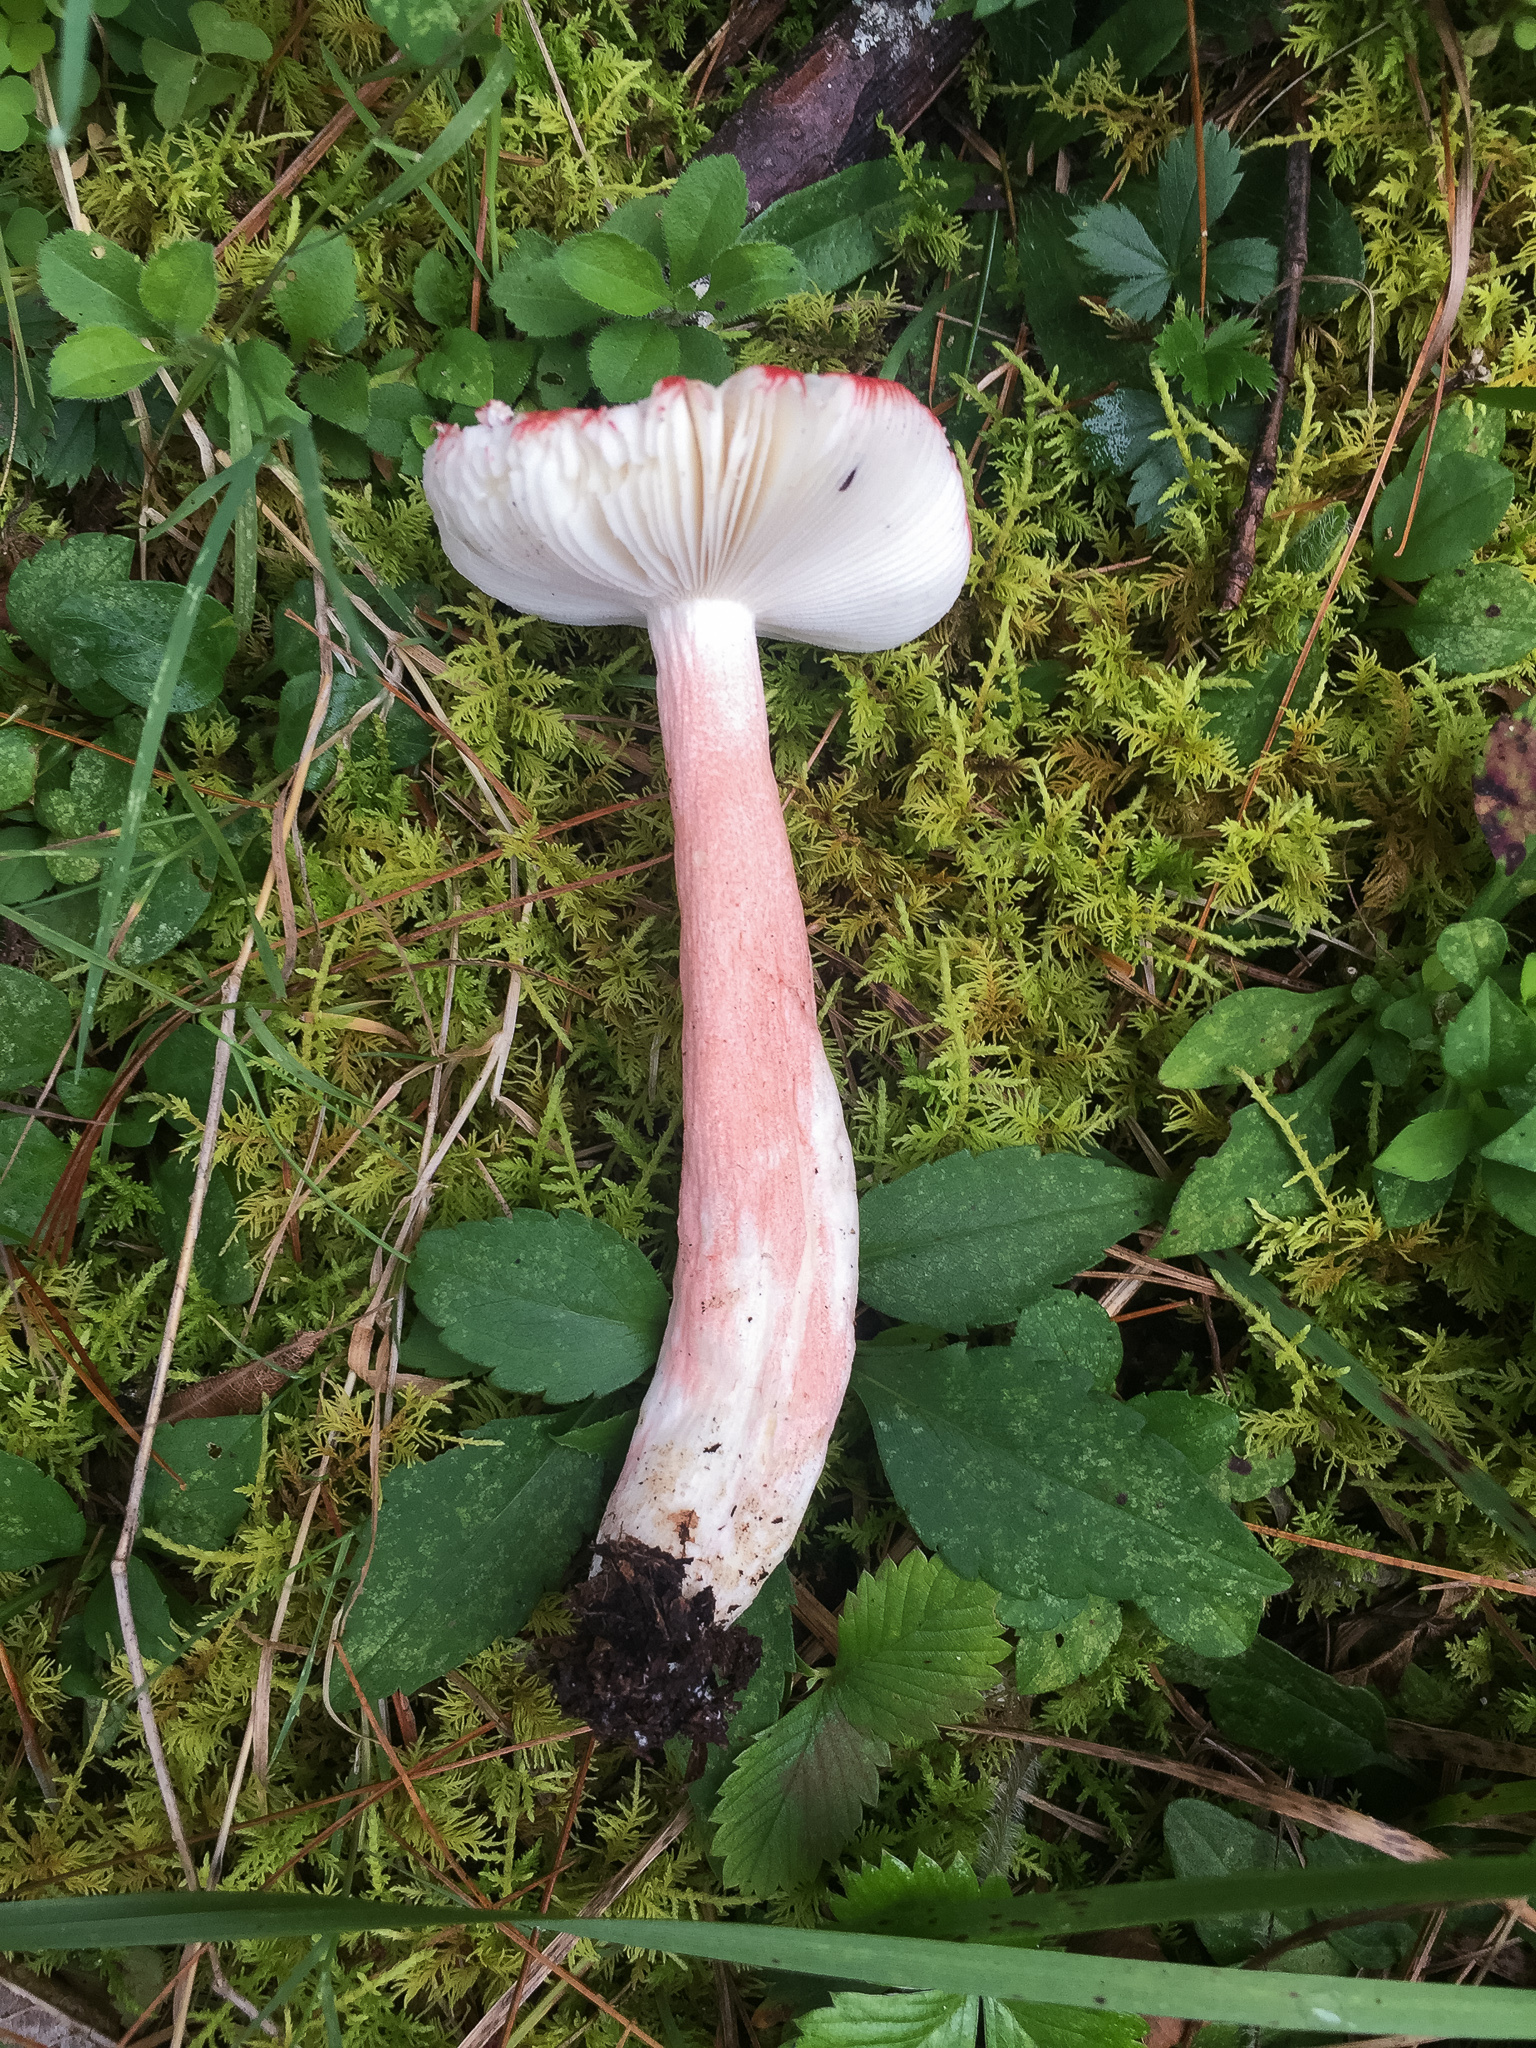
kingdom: Fungi
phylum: Basidiomycota
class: Agaricomycetes
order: Russulales
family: Russulaceae
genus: Russula
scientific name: Russula peckii
